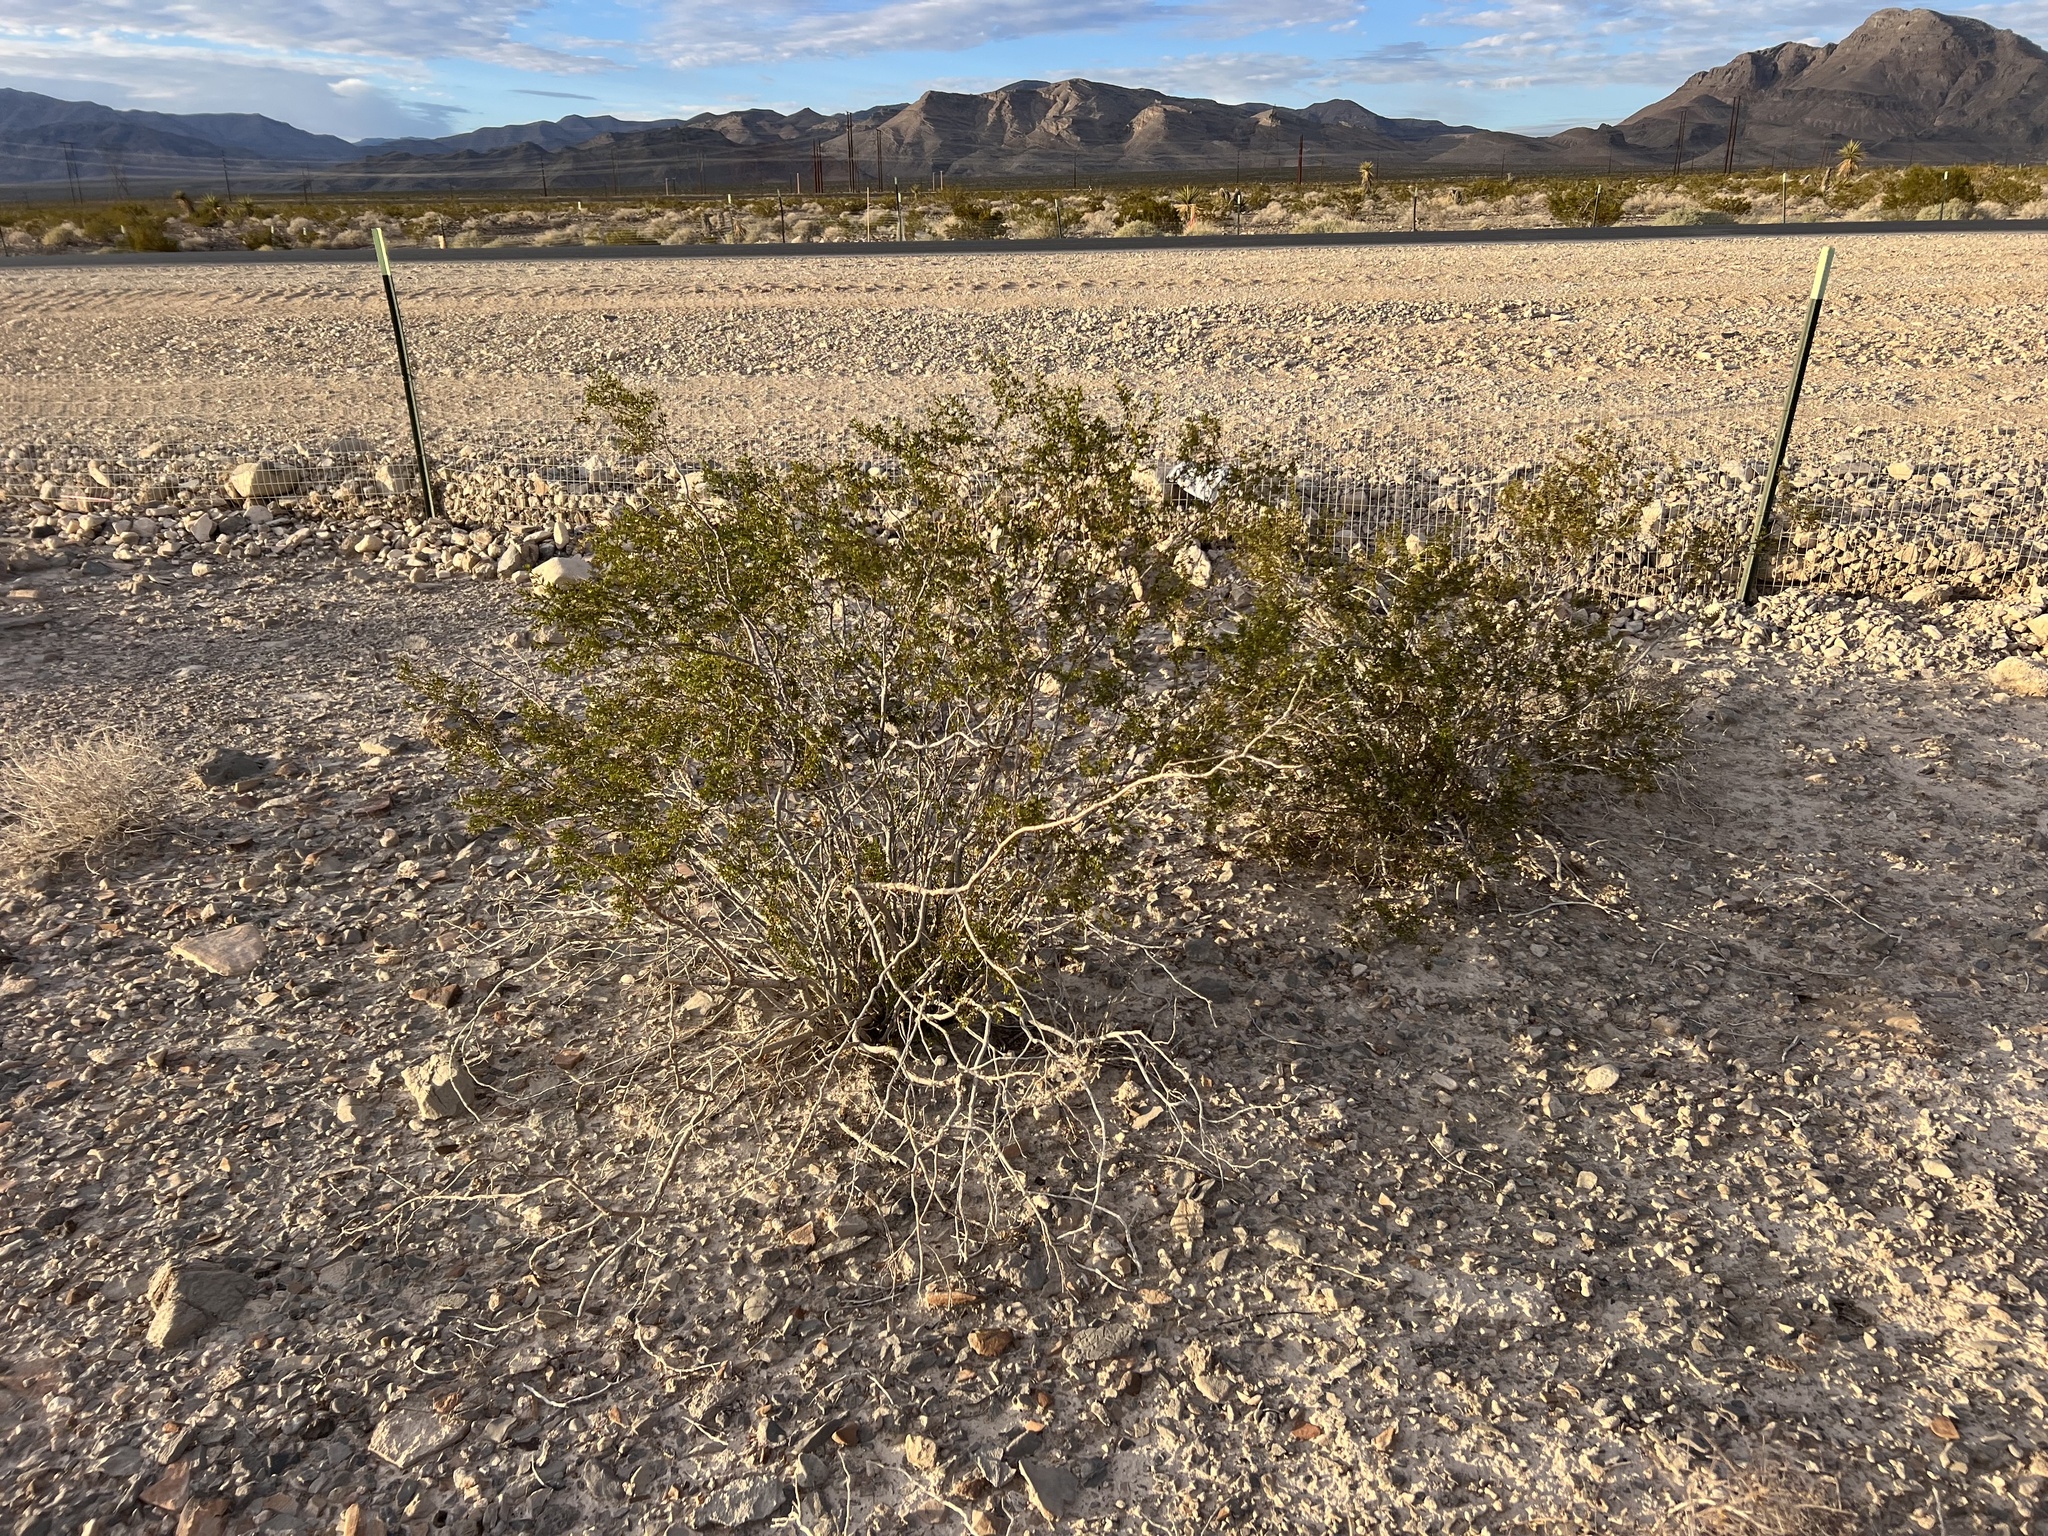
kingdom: Plantae
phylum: Tracheophyta
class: Magnoliopsida
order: Zygophyllales
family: Zygophyllaceae
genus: Larrea
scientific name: Larrea tridentata
